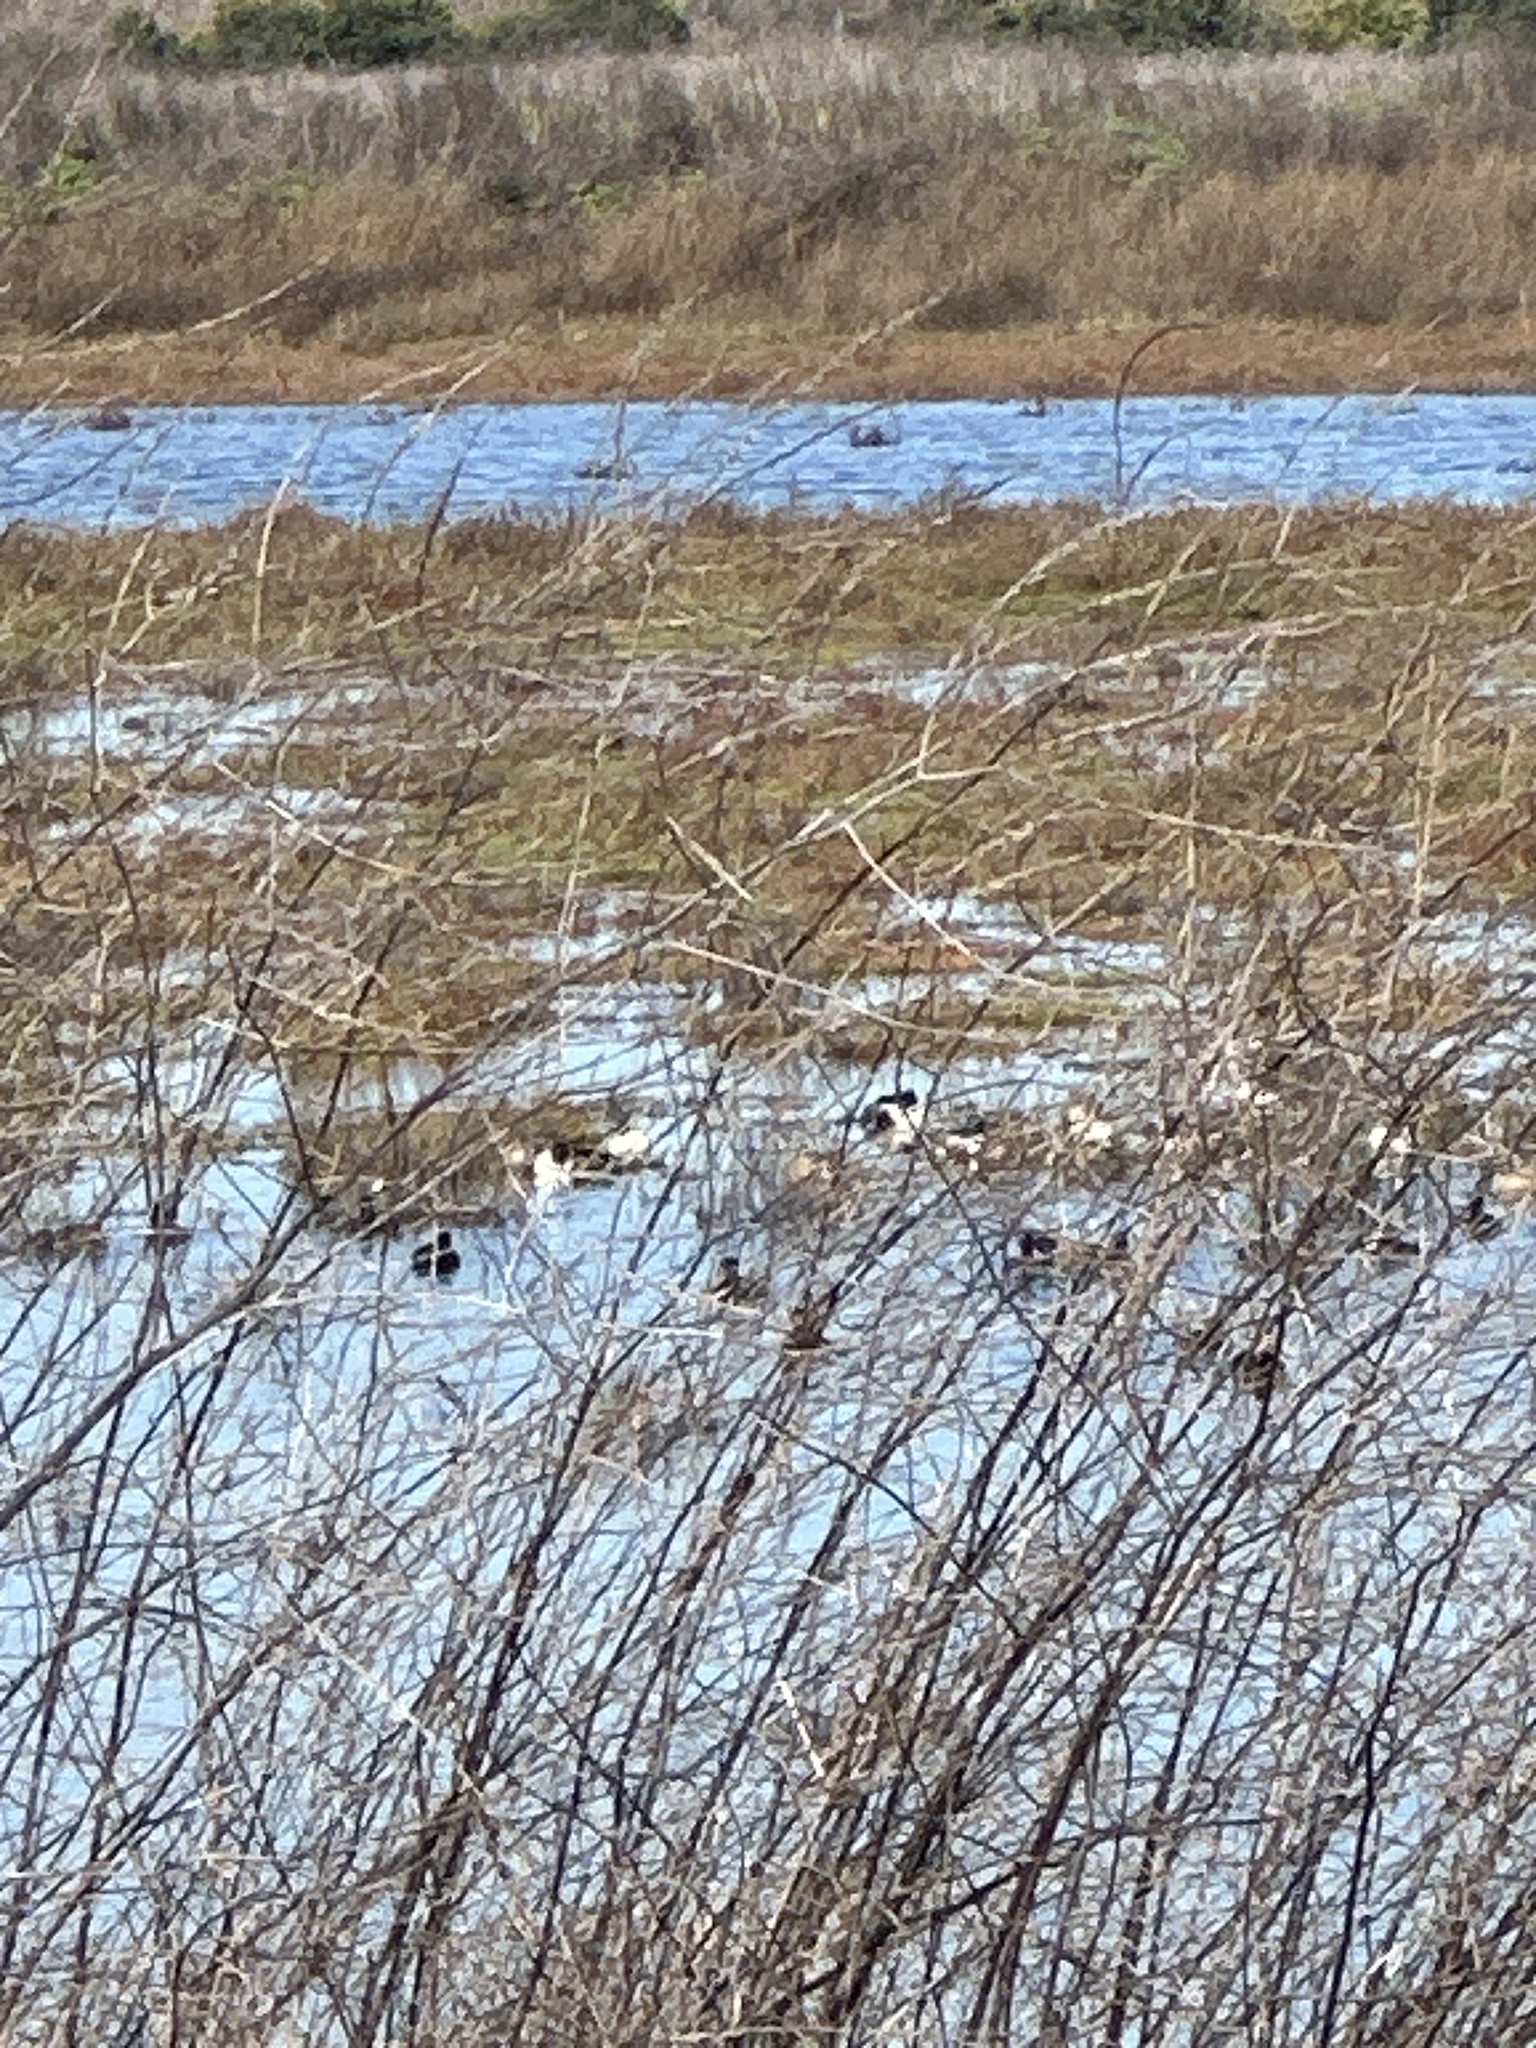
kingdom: Animalia
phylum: Chordata
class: Aves
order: Anseriformes
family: Anatidae
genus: Spatula
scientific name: Spatula clypeata
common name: Northern shoveler
